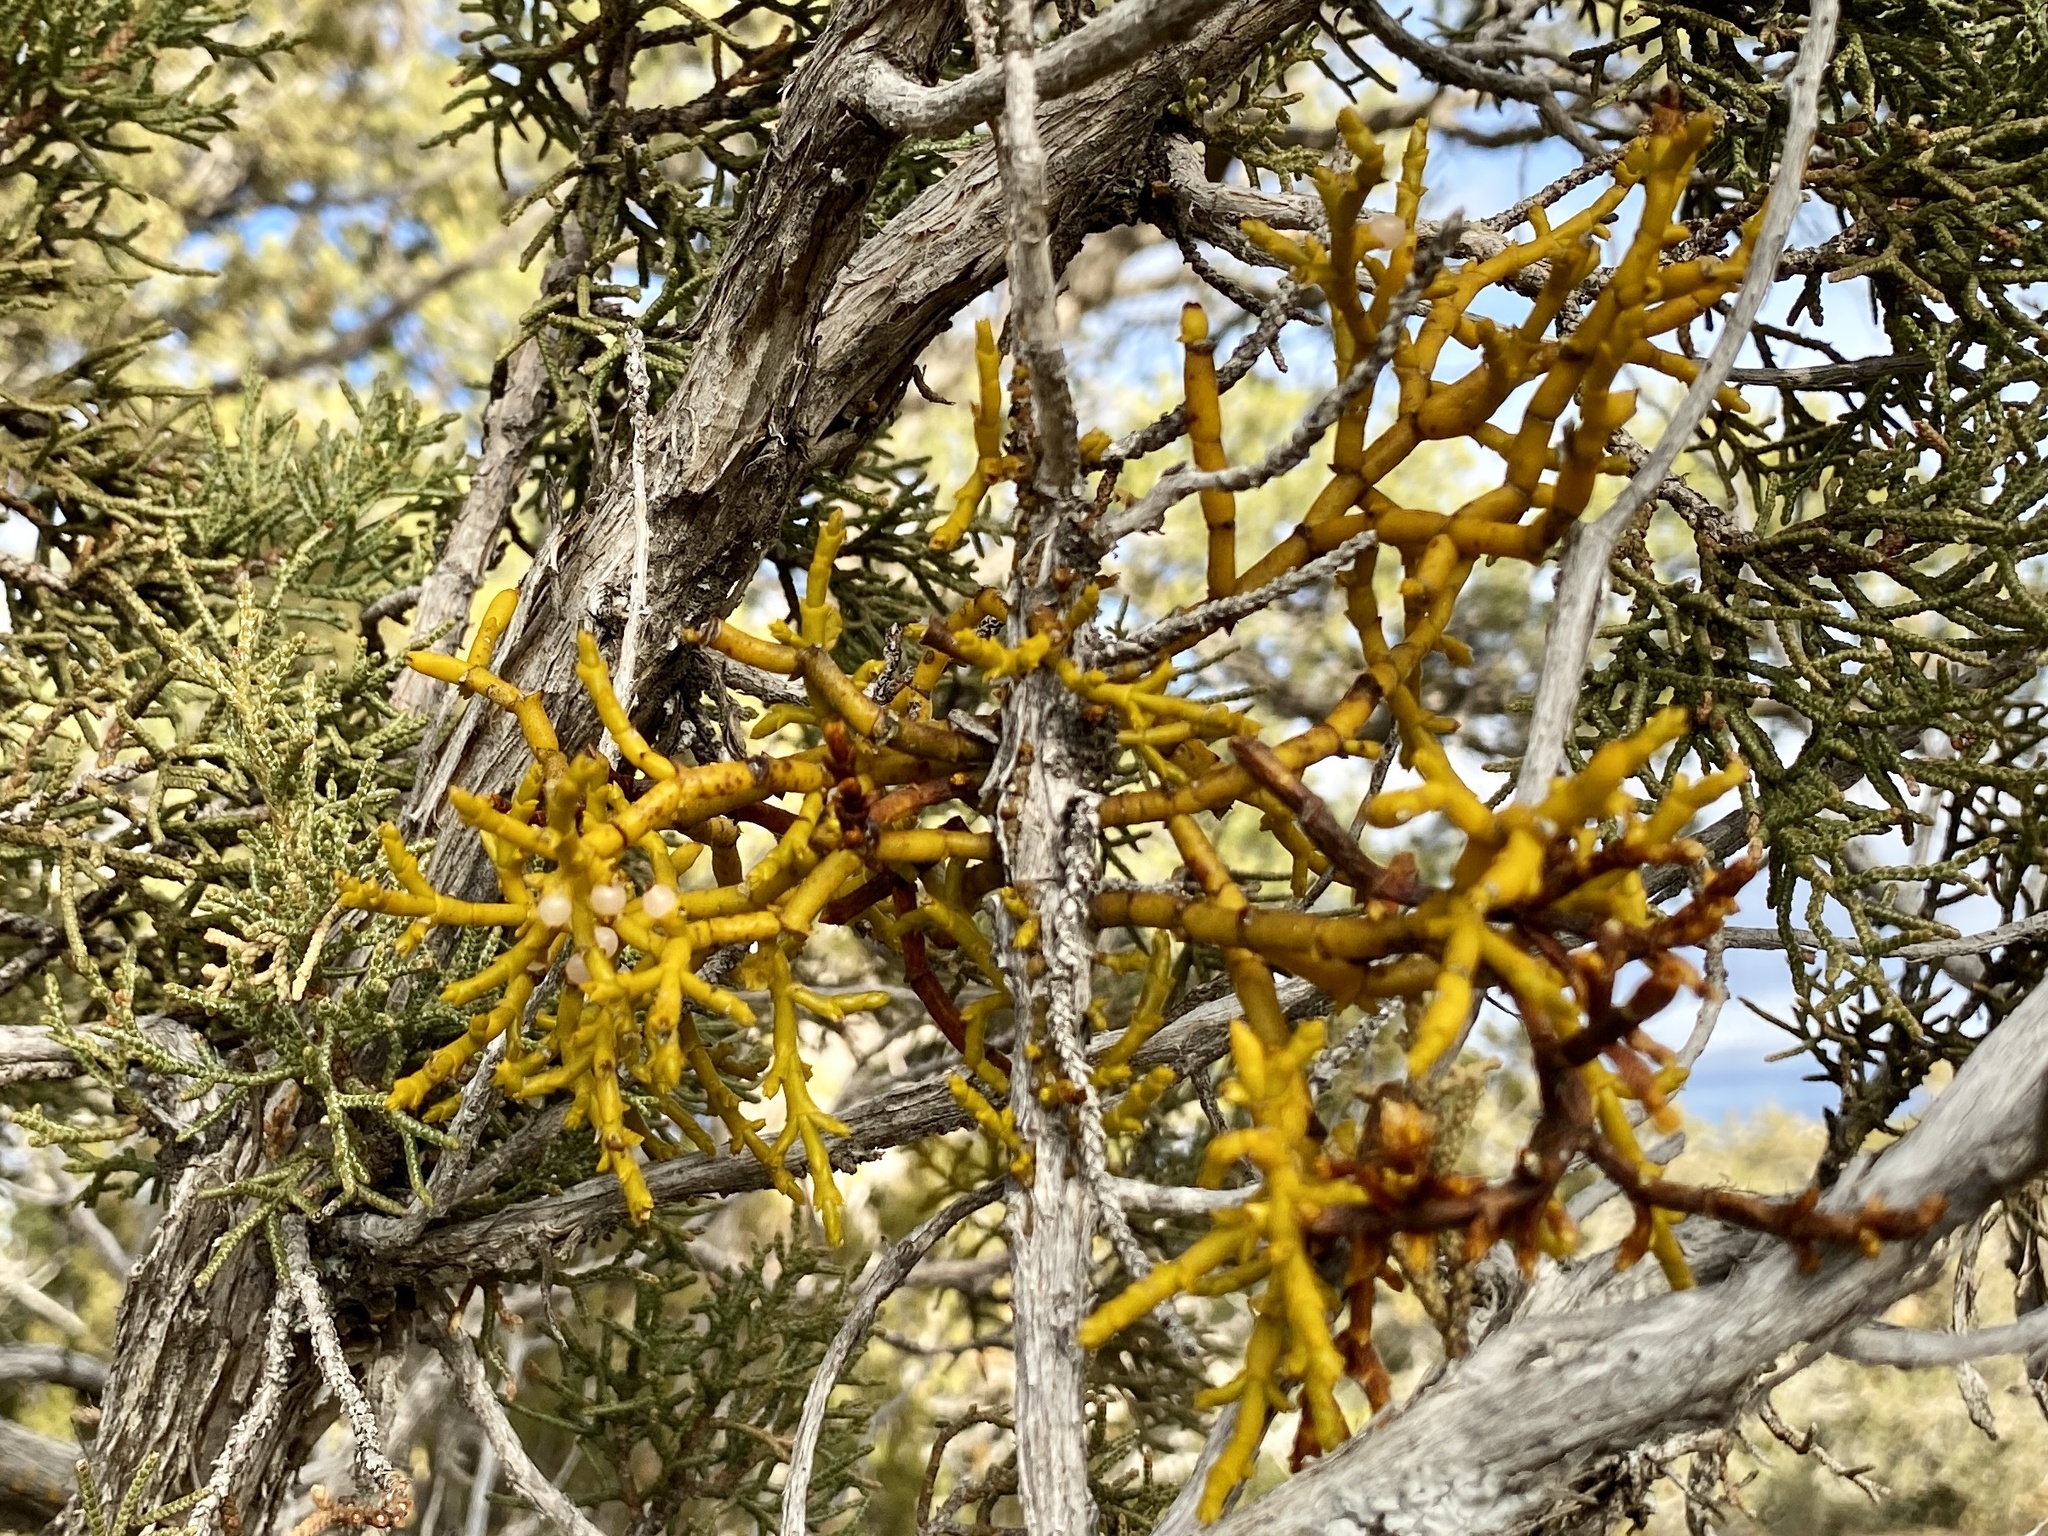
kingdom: Plantae
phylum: Tracheophyta
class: Magnoliopsida
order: Santalales
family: Viscaceae
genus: Phoradendron
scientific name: Phoradendron juniperinum
